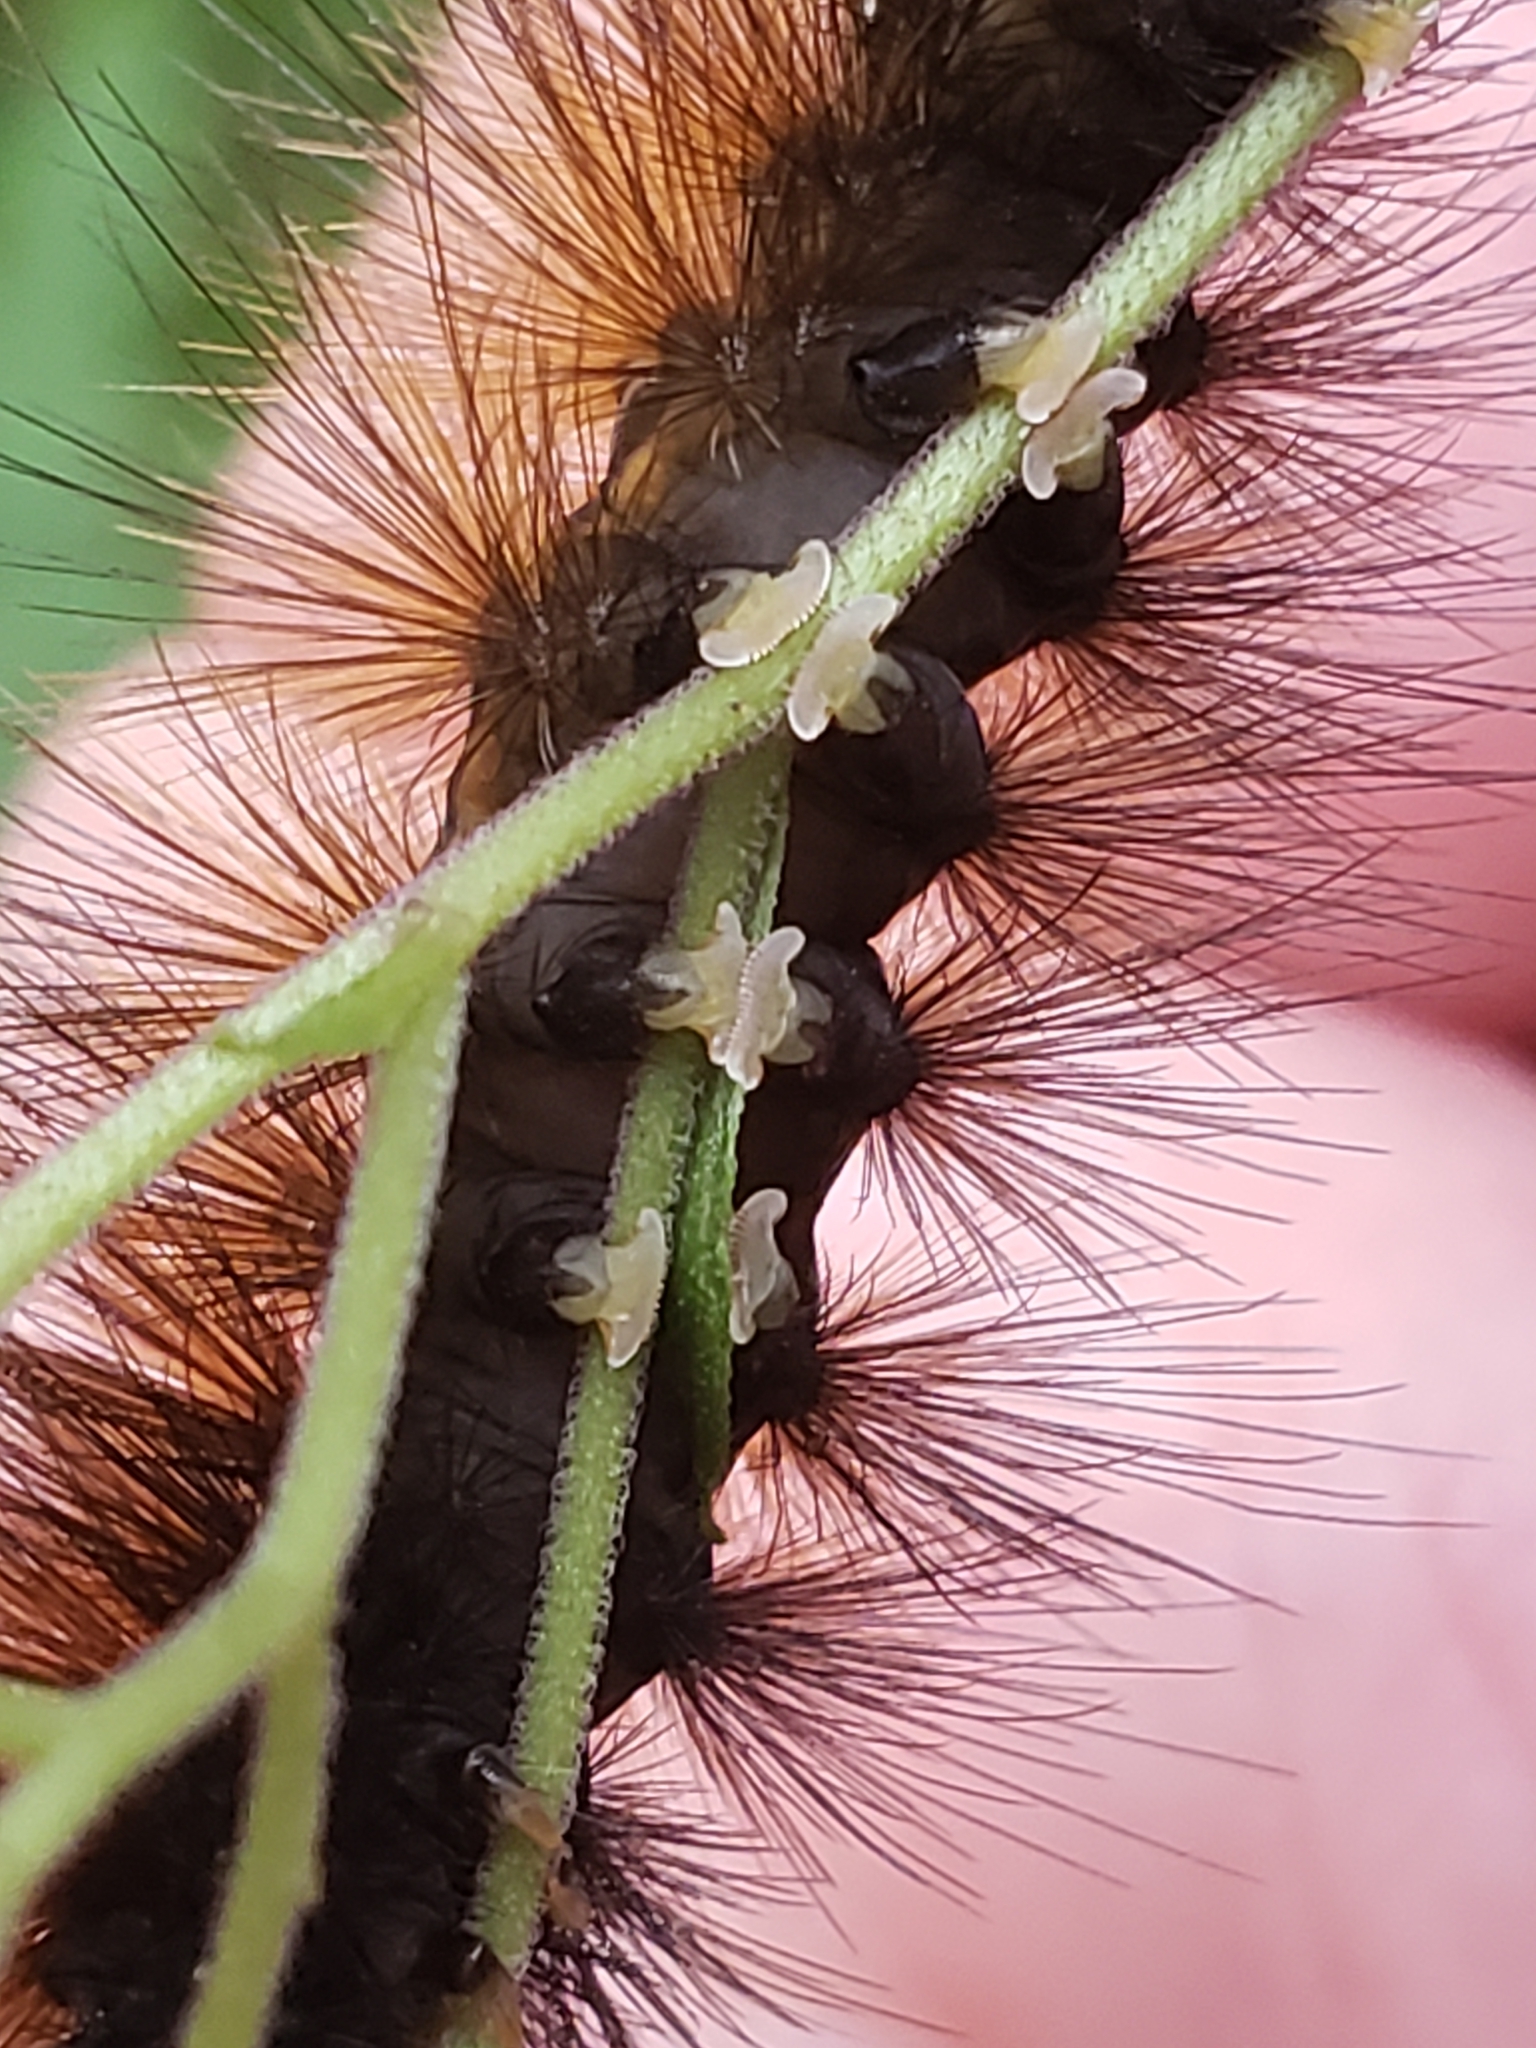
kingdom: Animalia
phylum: Arthropoda
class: Insecta
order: Lepidoptera
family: Erebidae
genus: Spilosoma
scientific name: Spilosoma virginica
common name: Virginia tiger moth
